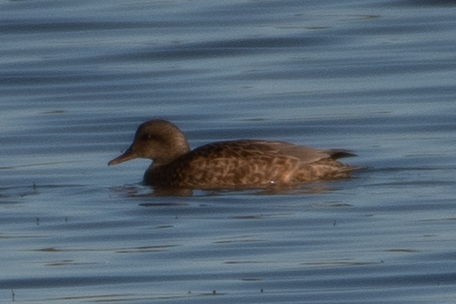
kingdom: Animalia
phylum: Chordata
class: Aves
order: Anseriformes
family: Anatidae
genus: Mareca
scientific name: Mareca strepera
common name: Gadwall
